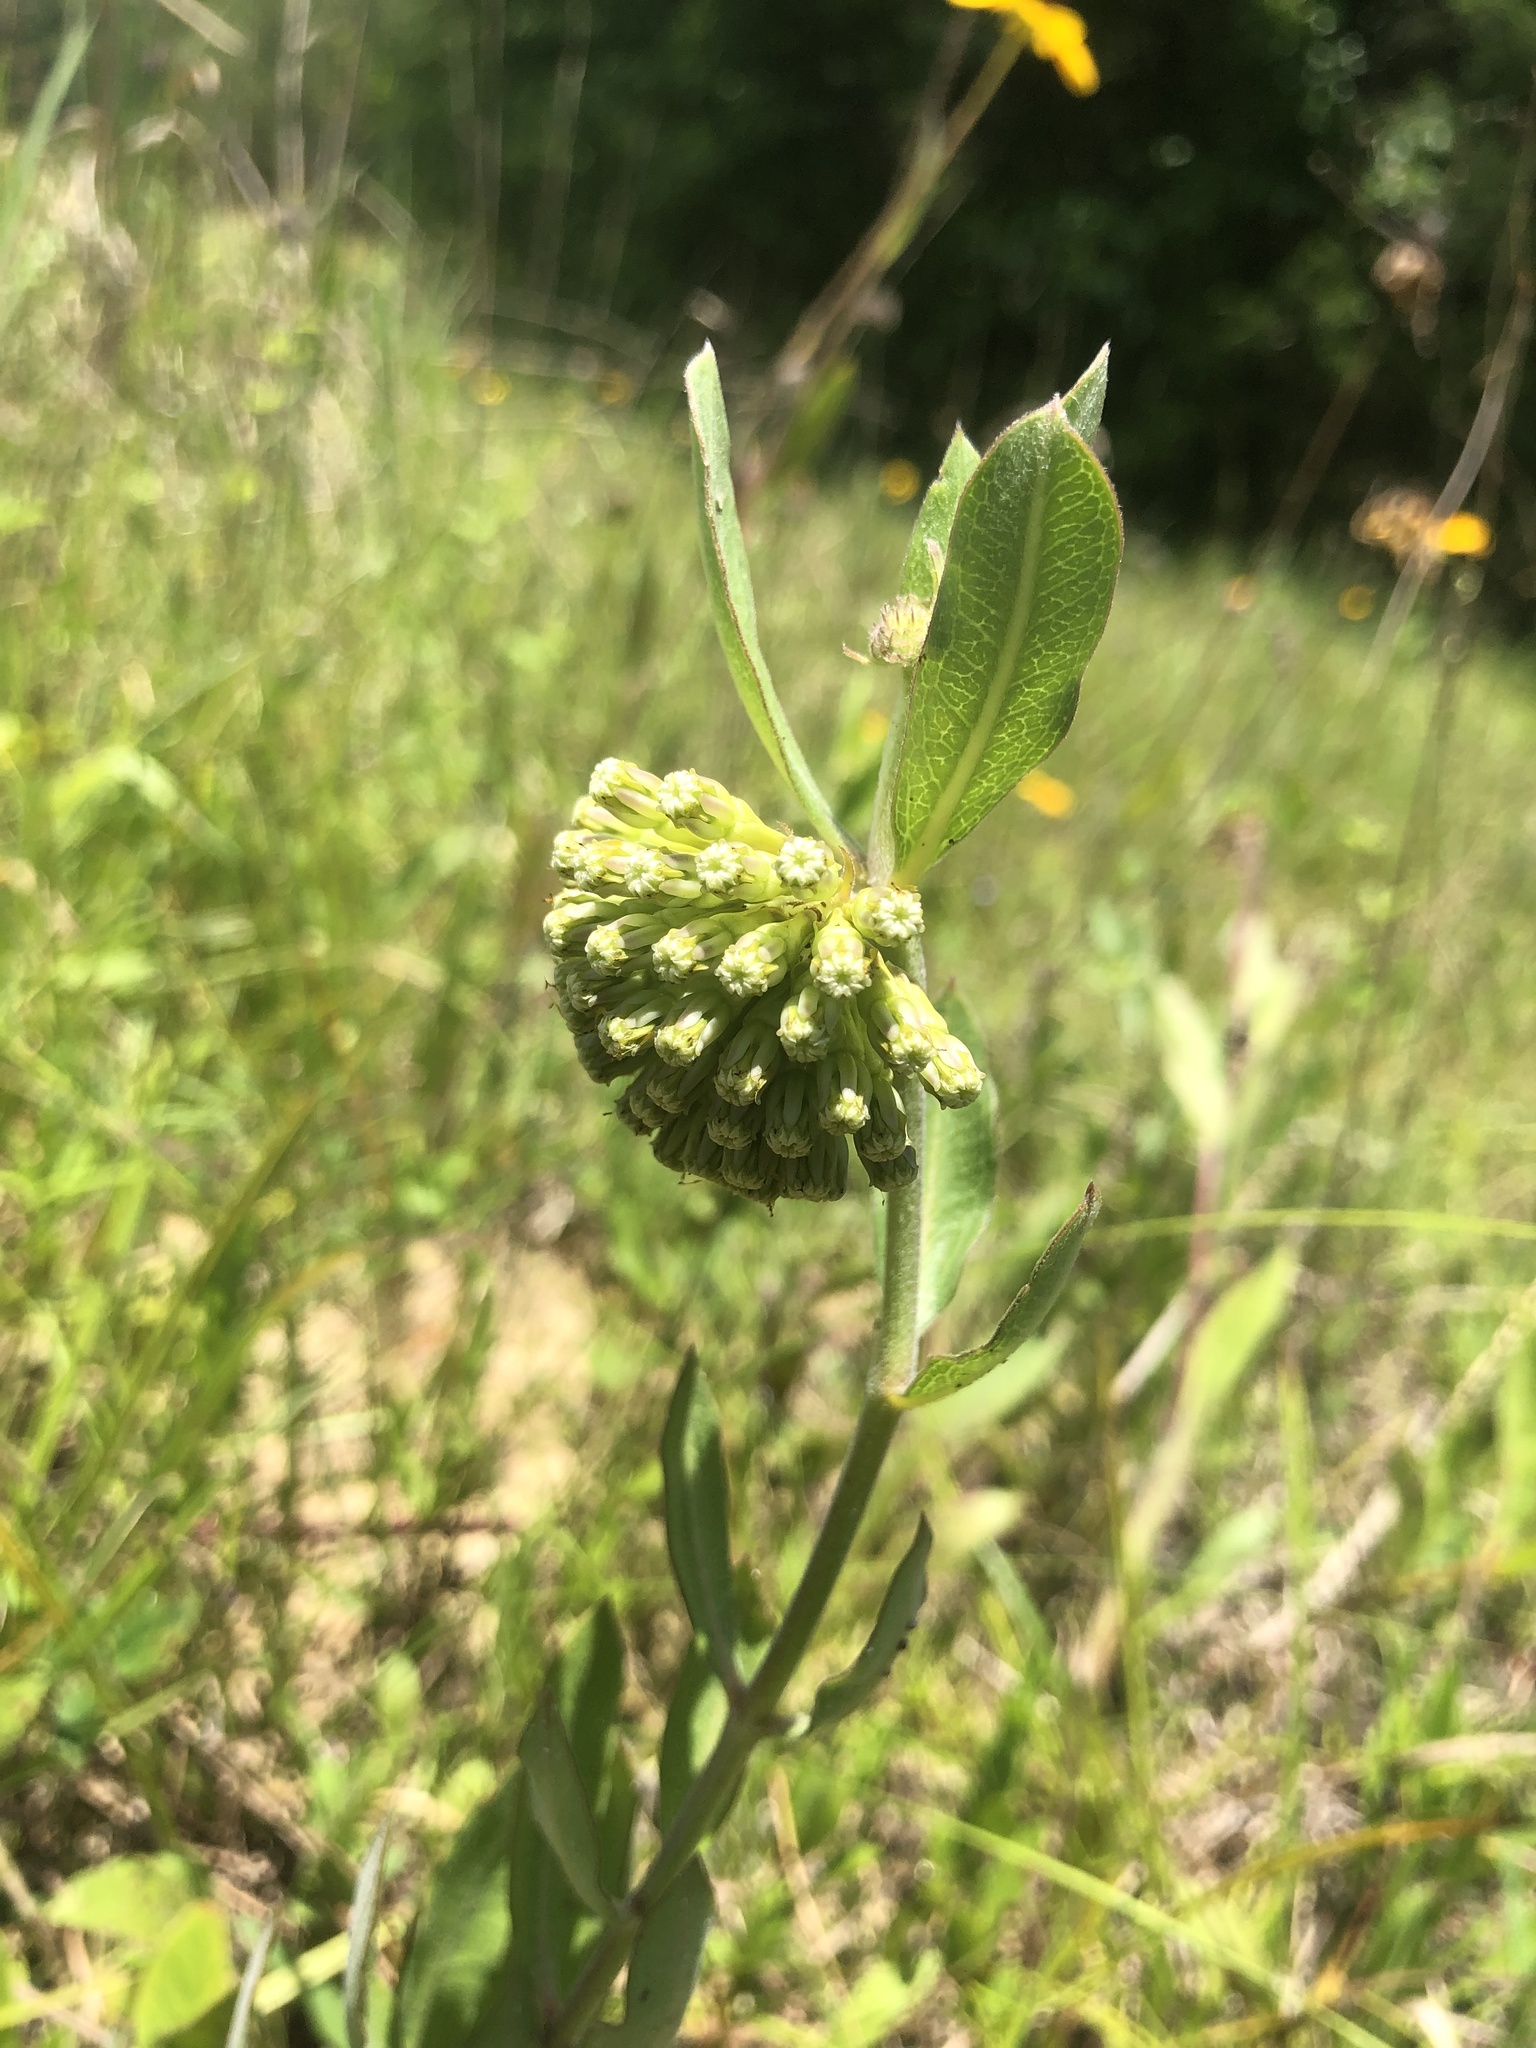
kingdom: Plantae
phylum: Tracheophyta
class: Magnoliopsida
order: Gentianales
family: Apocynaceae
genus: Asclepias
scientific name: Asclepias viridiflora
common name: Green comet milkweed
